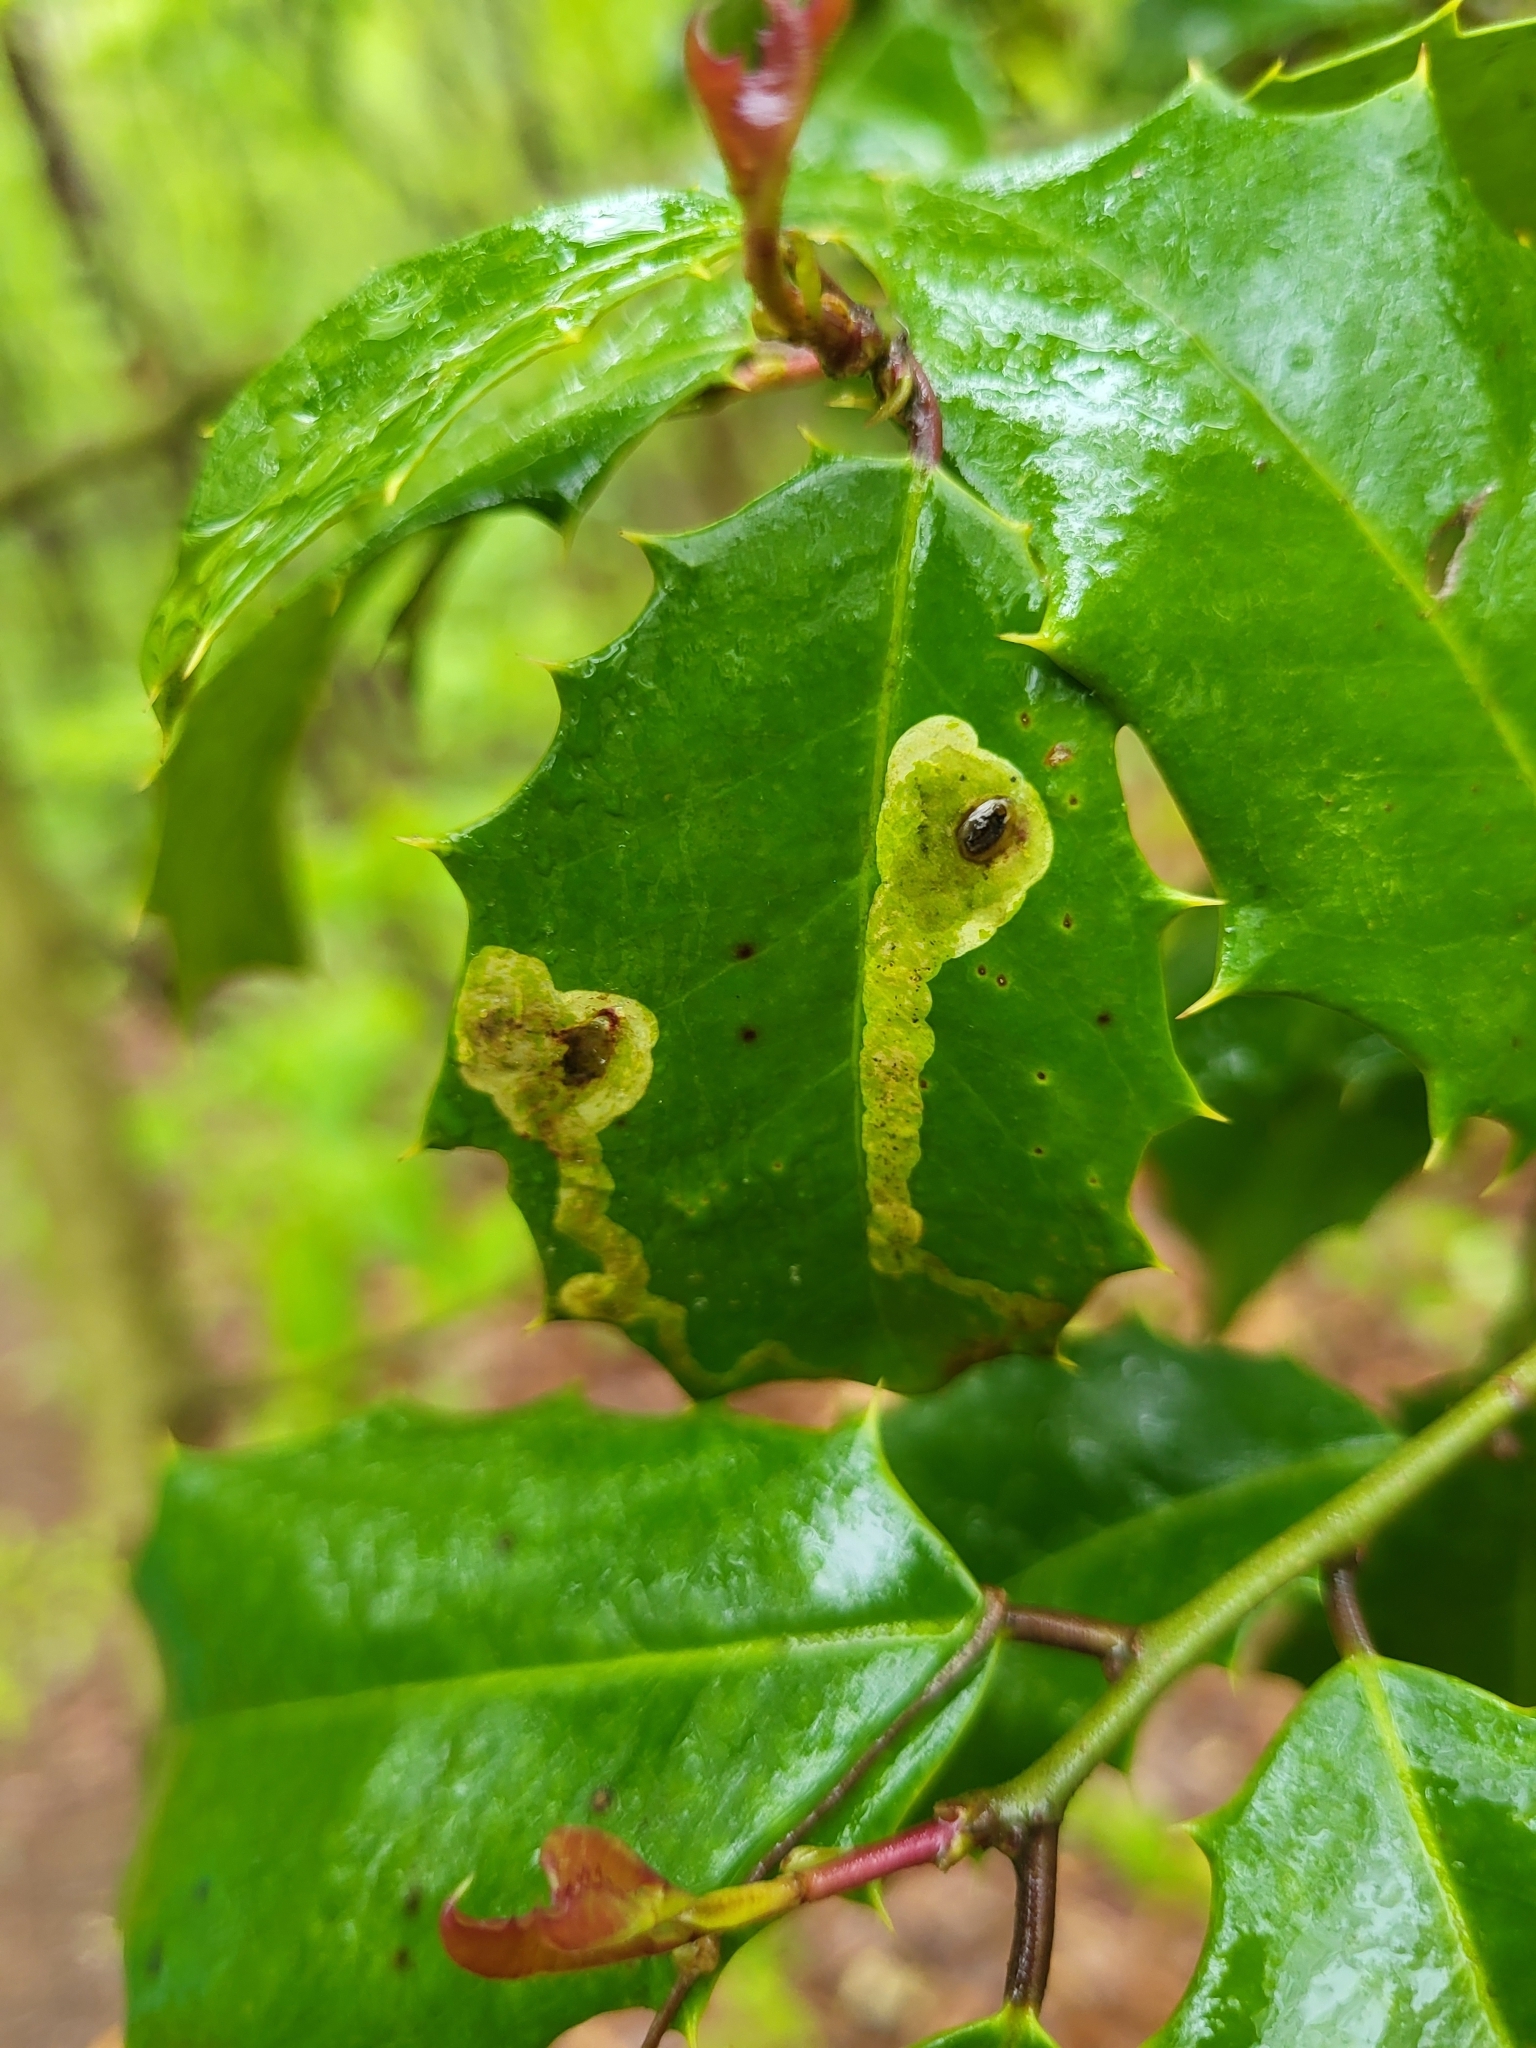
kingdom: Animalia
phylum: Arthropoda
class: Insecta
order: Diptera
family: Agromyzidae
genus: Phytomyza
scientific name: Phytomyza ilicicola
